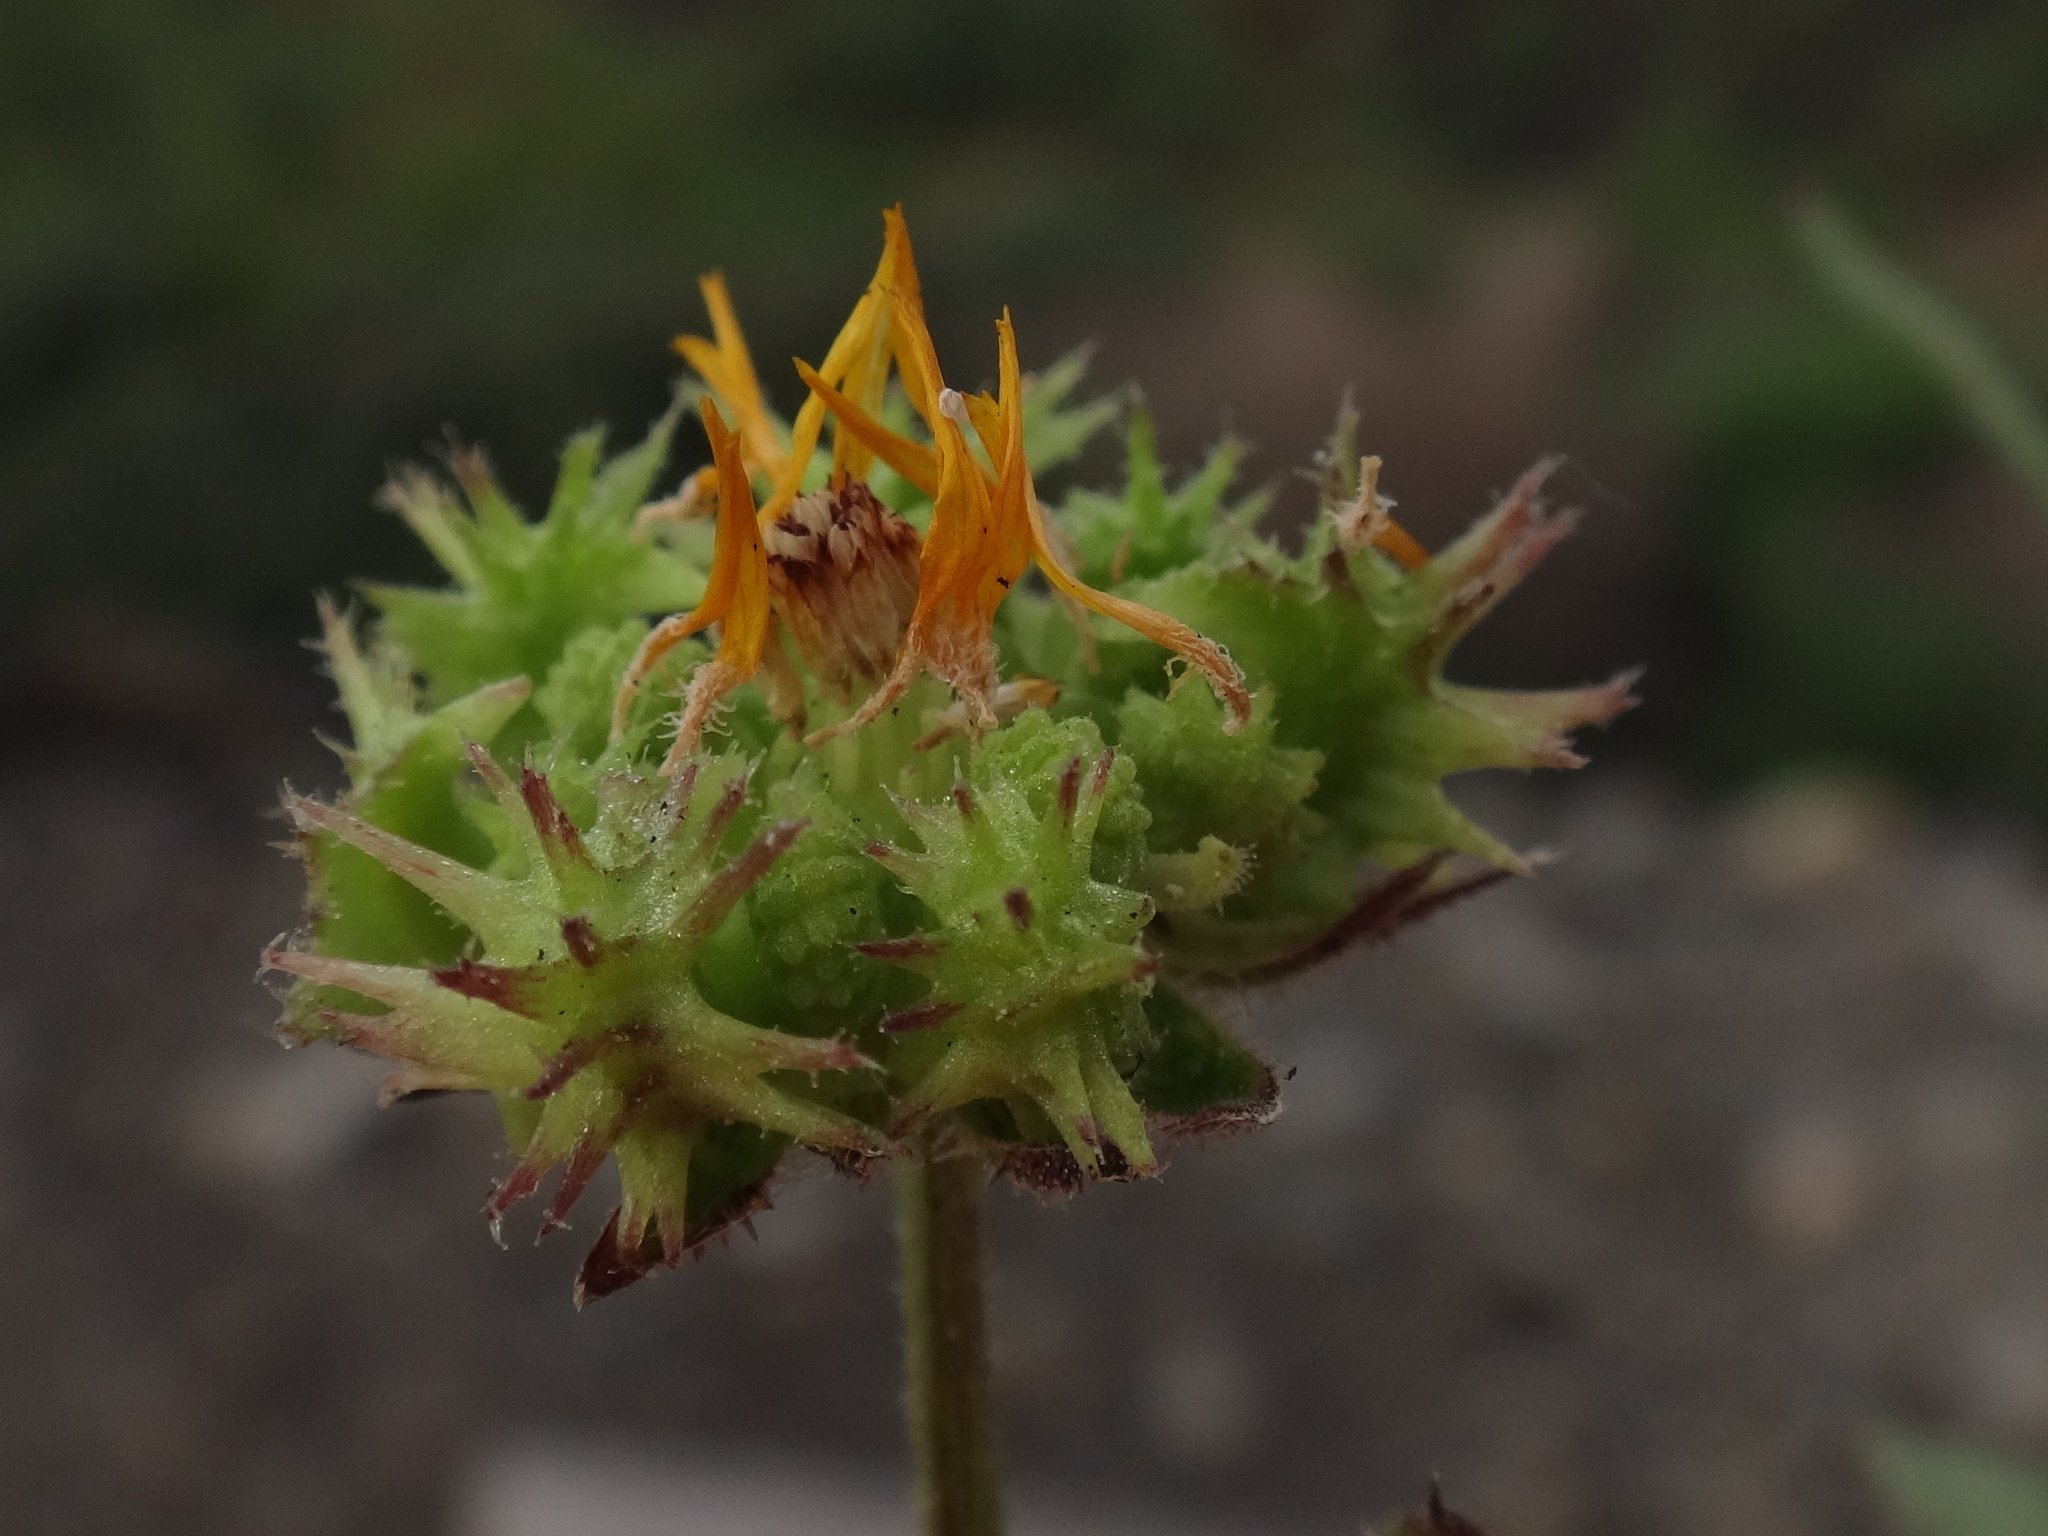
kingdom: Plantae
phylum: Tracheophyta
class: Magnoliopsida
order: Asterales
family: Asteraceae
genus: Calendula
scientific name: Calendula arvensis
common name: Field marigold
